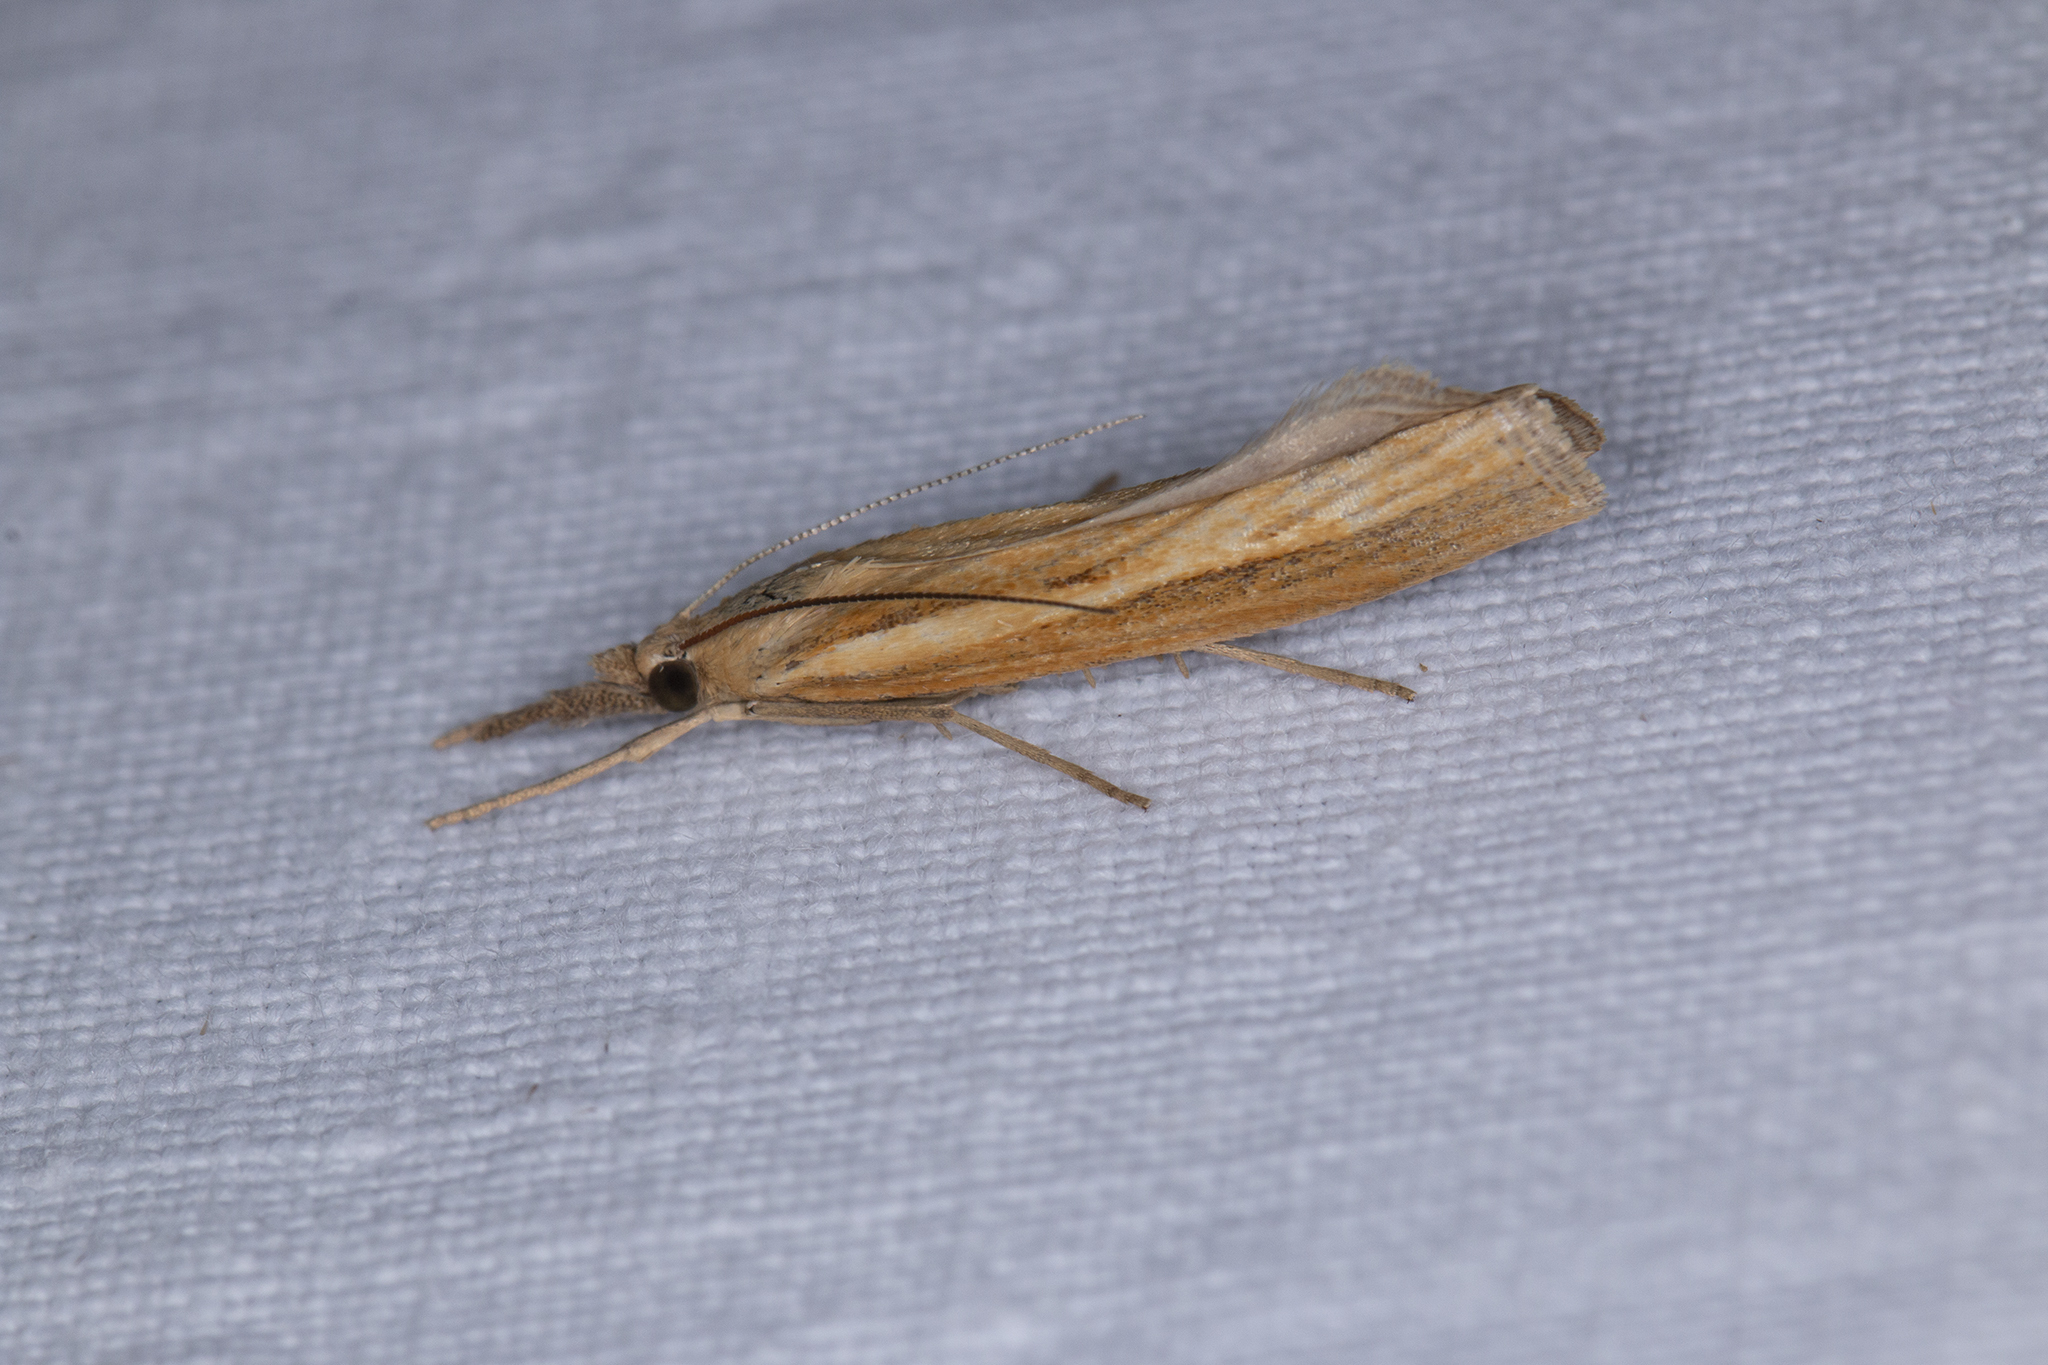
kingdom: Animalia
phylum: Arthropoda
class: Insecta
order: Lepidoptera
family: Crambidae
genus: Agriphila
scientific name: Agriphila tristellus
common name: Common grass-veneer
